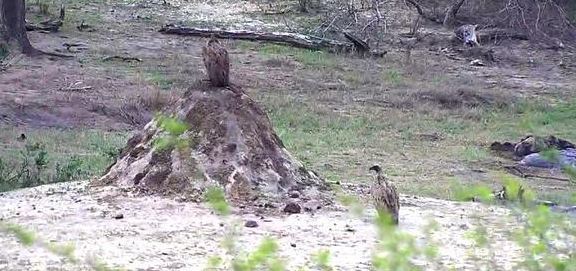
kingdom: Animalia
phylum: Chordata
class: Aves
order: Accipitriformes
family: Accipitridae
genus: Gyps
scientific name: Gyps africanus
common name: White-backed vulture
